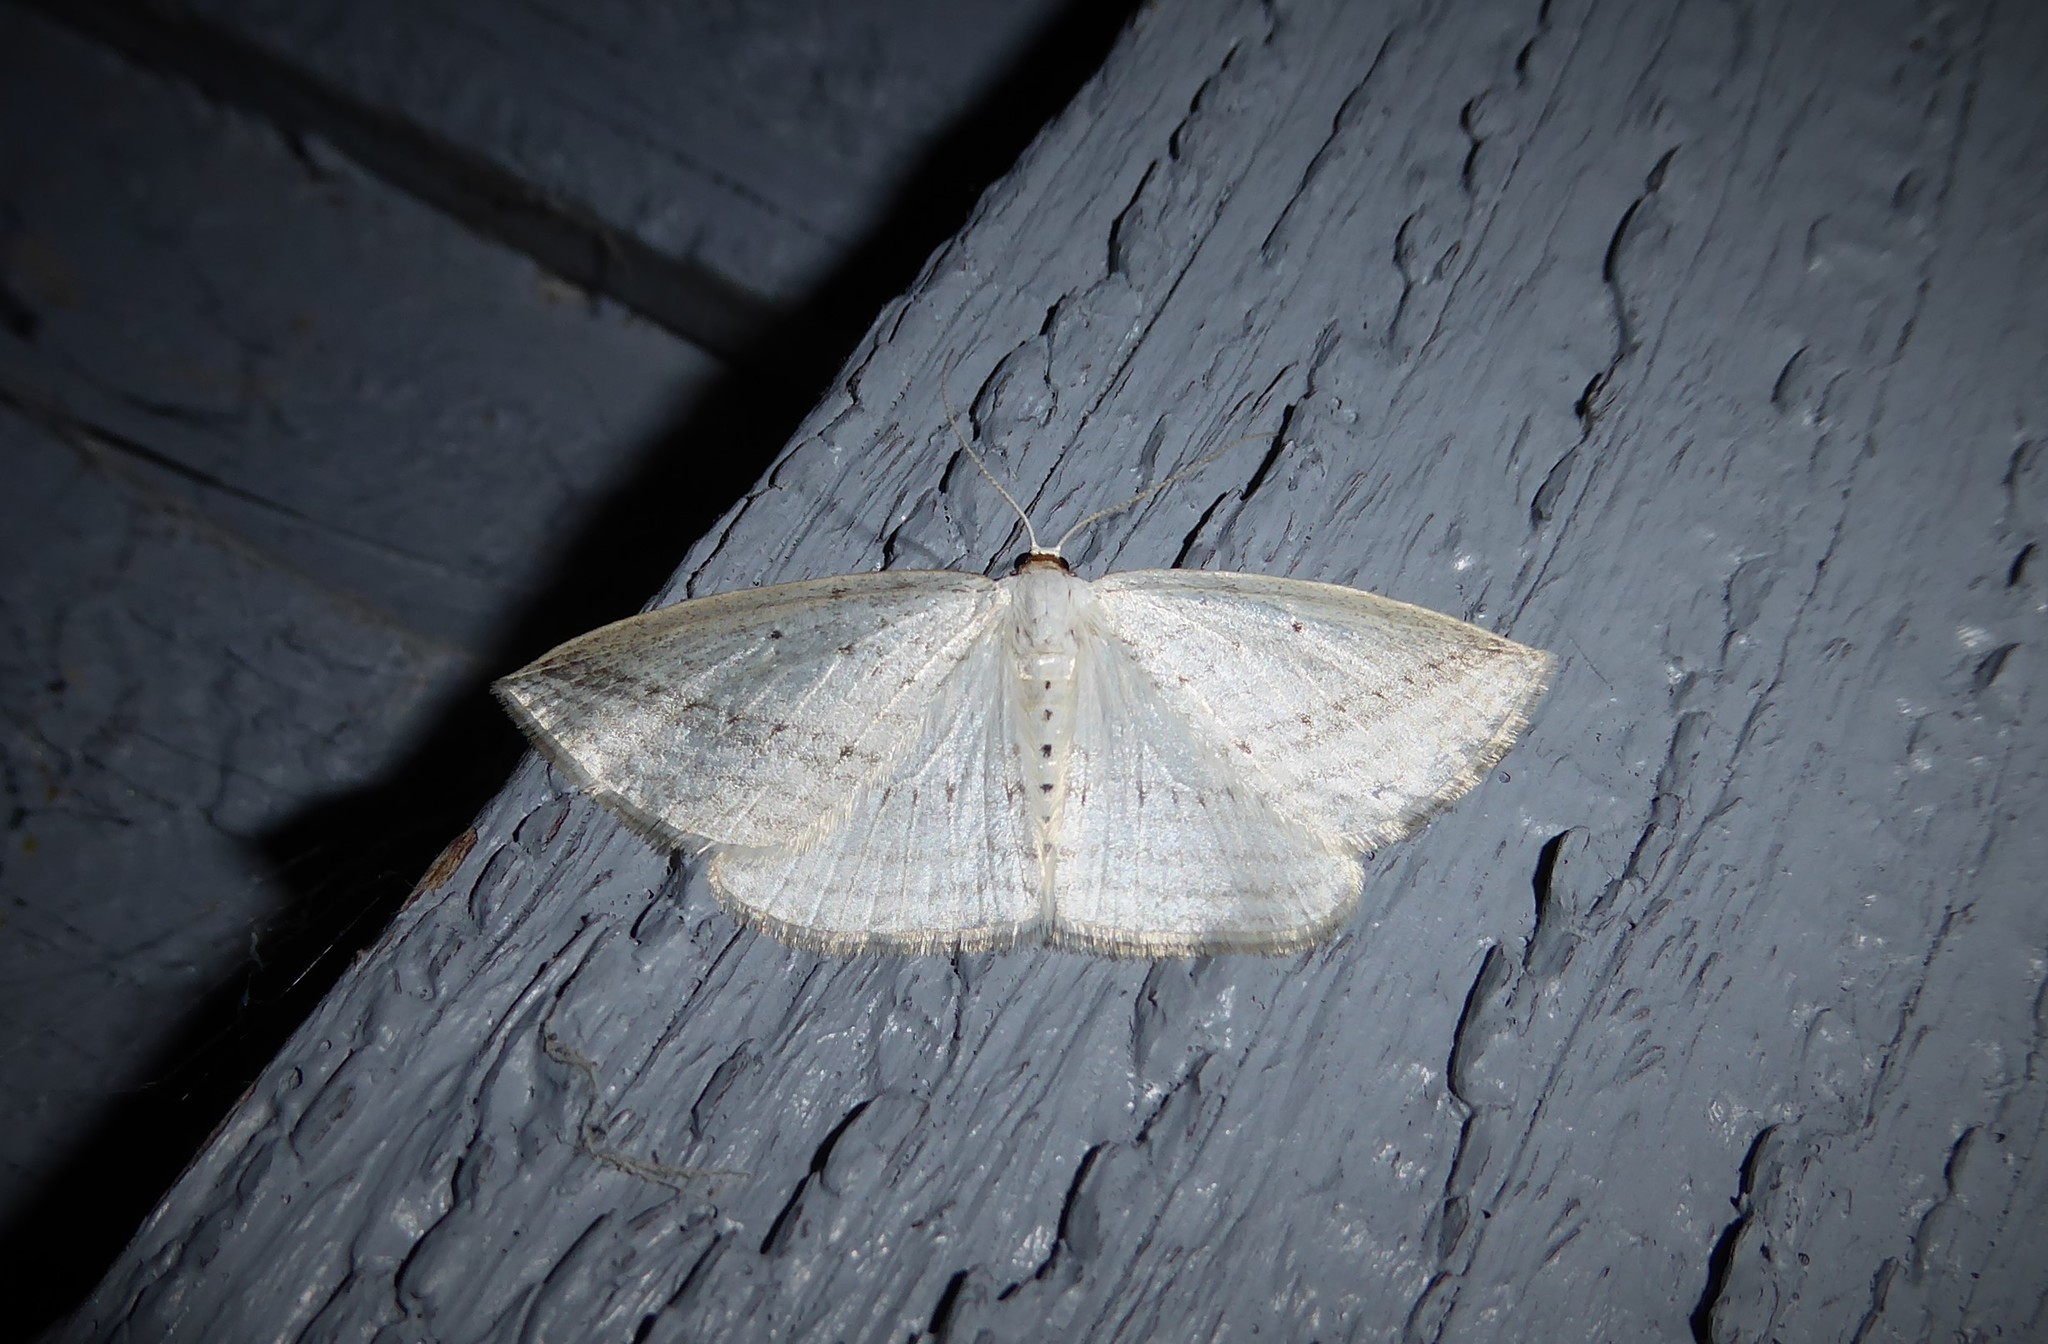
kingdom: Animalia
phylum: Arthropoda
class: Insecta
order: Lepidoptera
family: Geometridae
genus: Orthoclydon
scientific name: Orthoclydon praefectata
